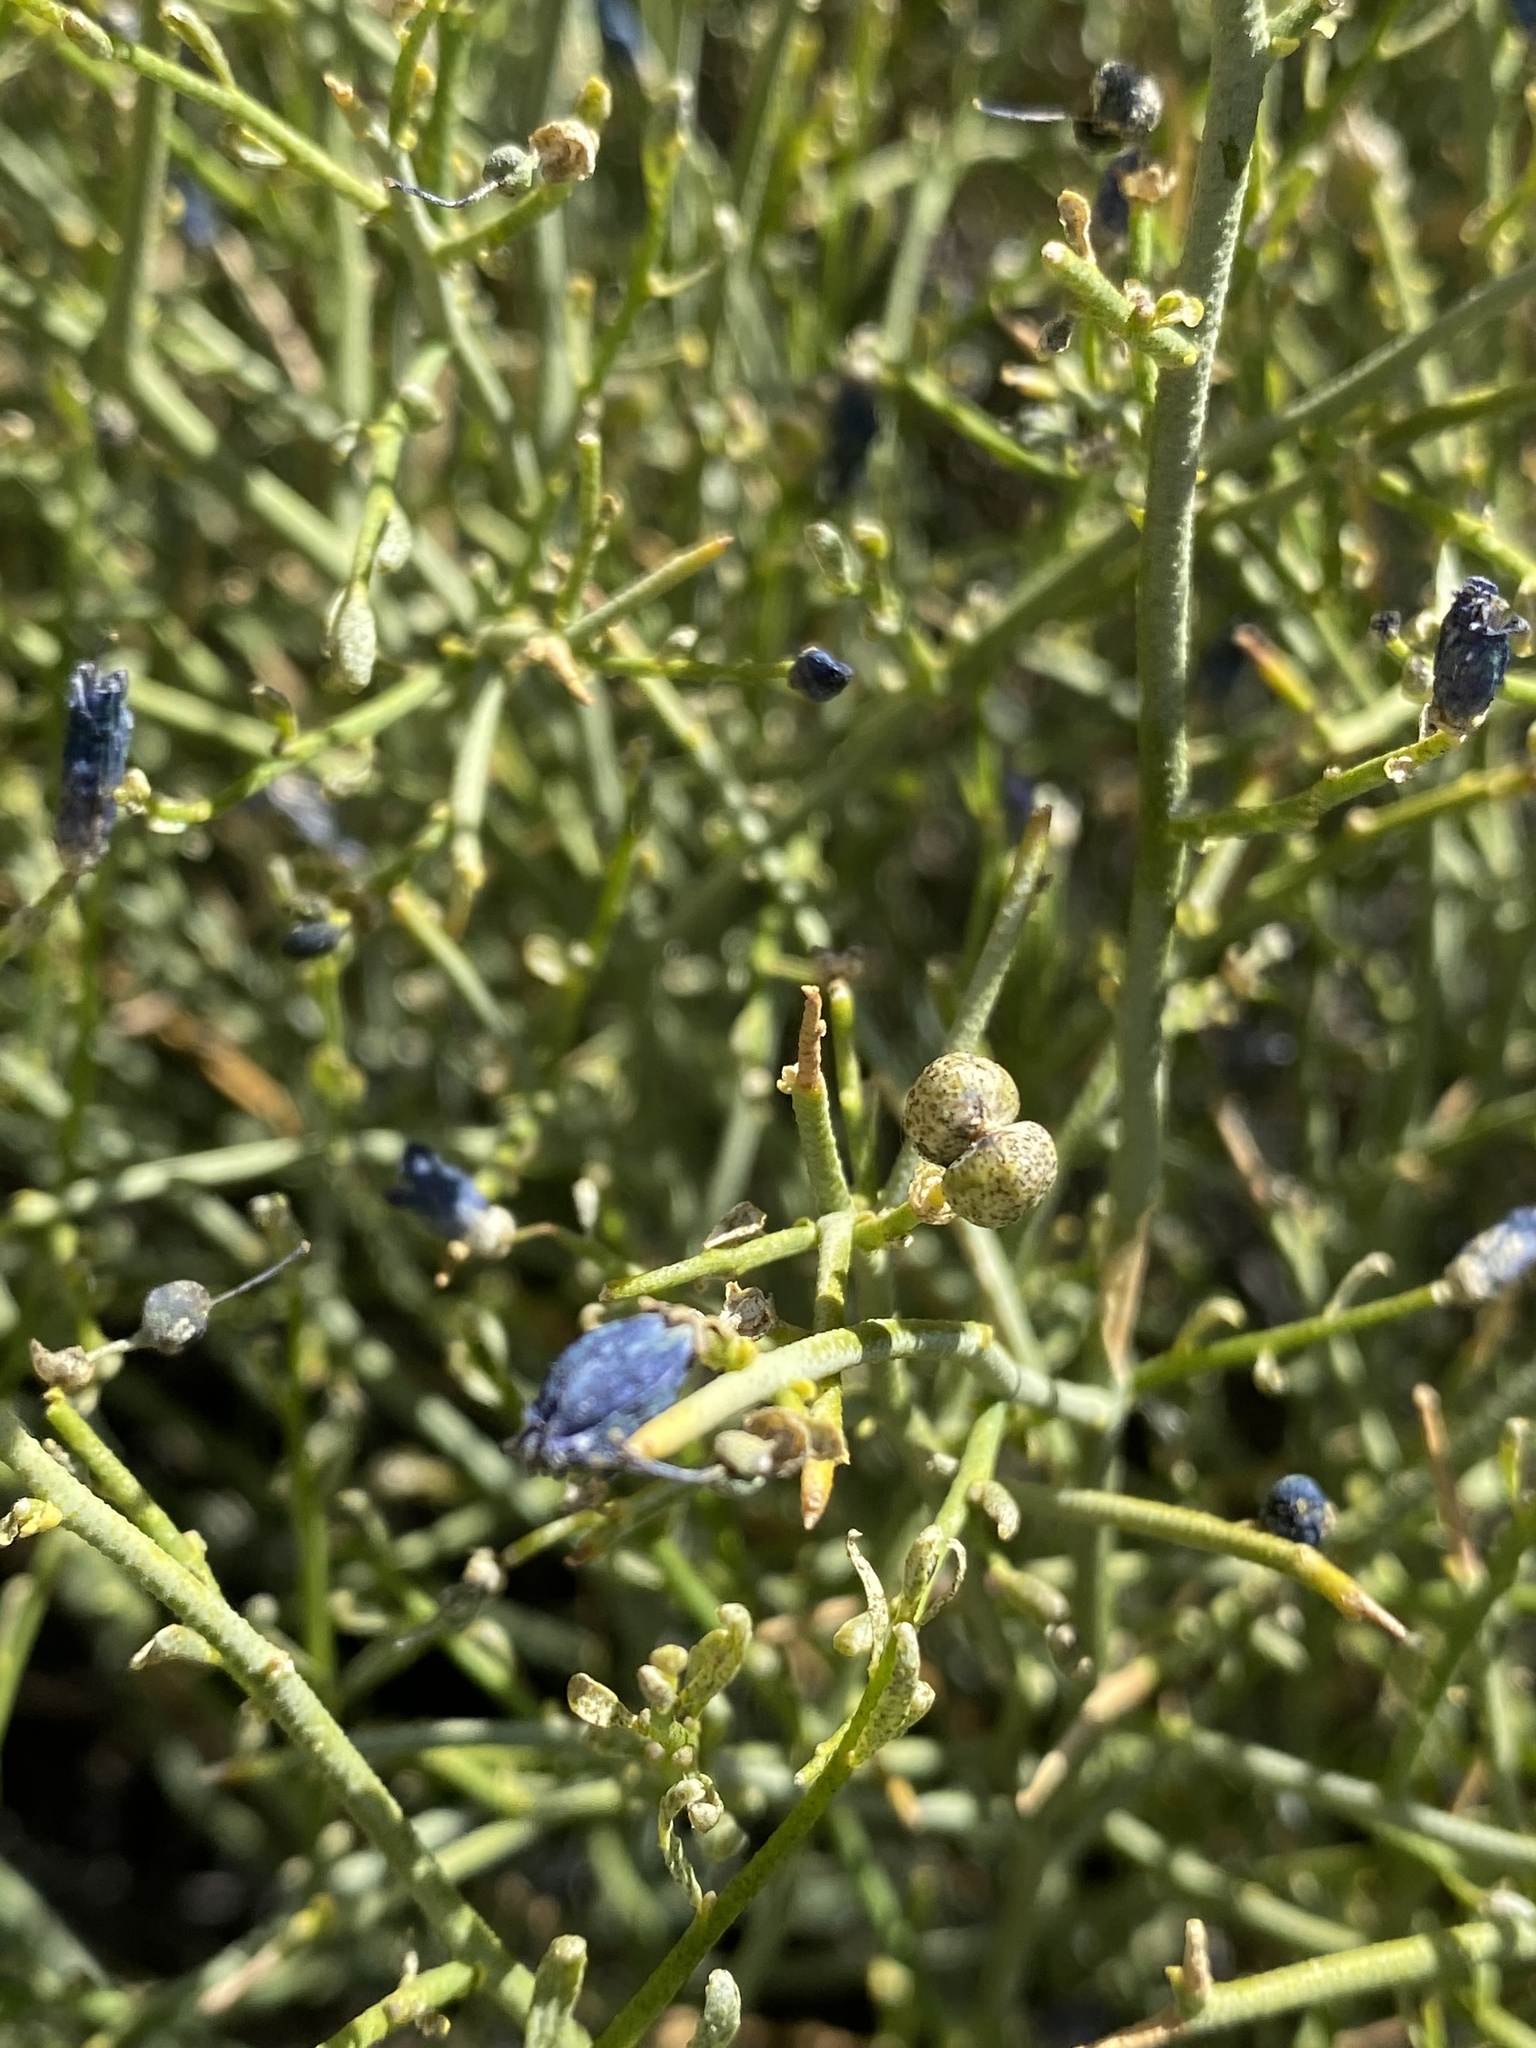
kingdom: Plantae
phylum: Tracheophyta
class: Magnoliopsida
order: Sapindales
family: Rutaceae
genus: Thamnosma
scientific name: Thamnosma montana
